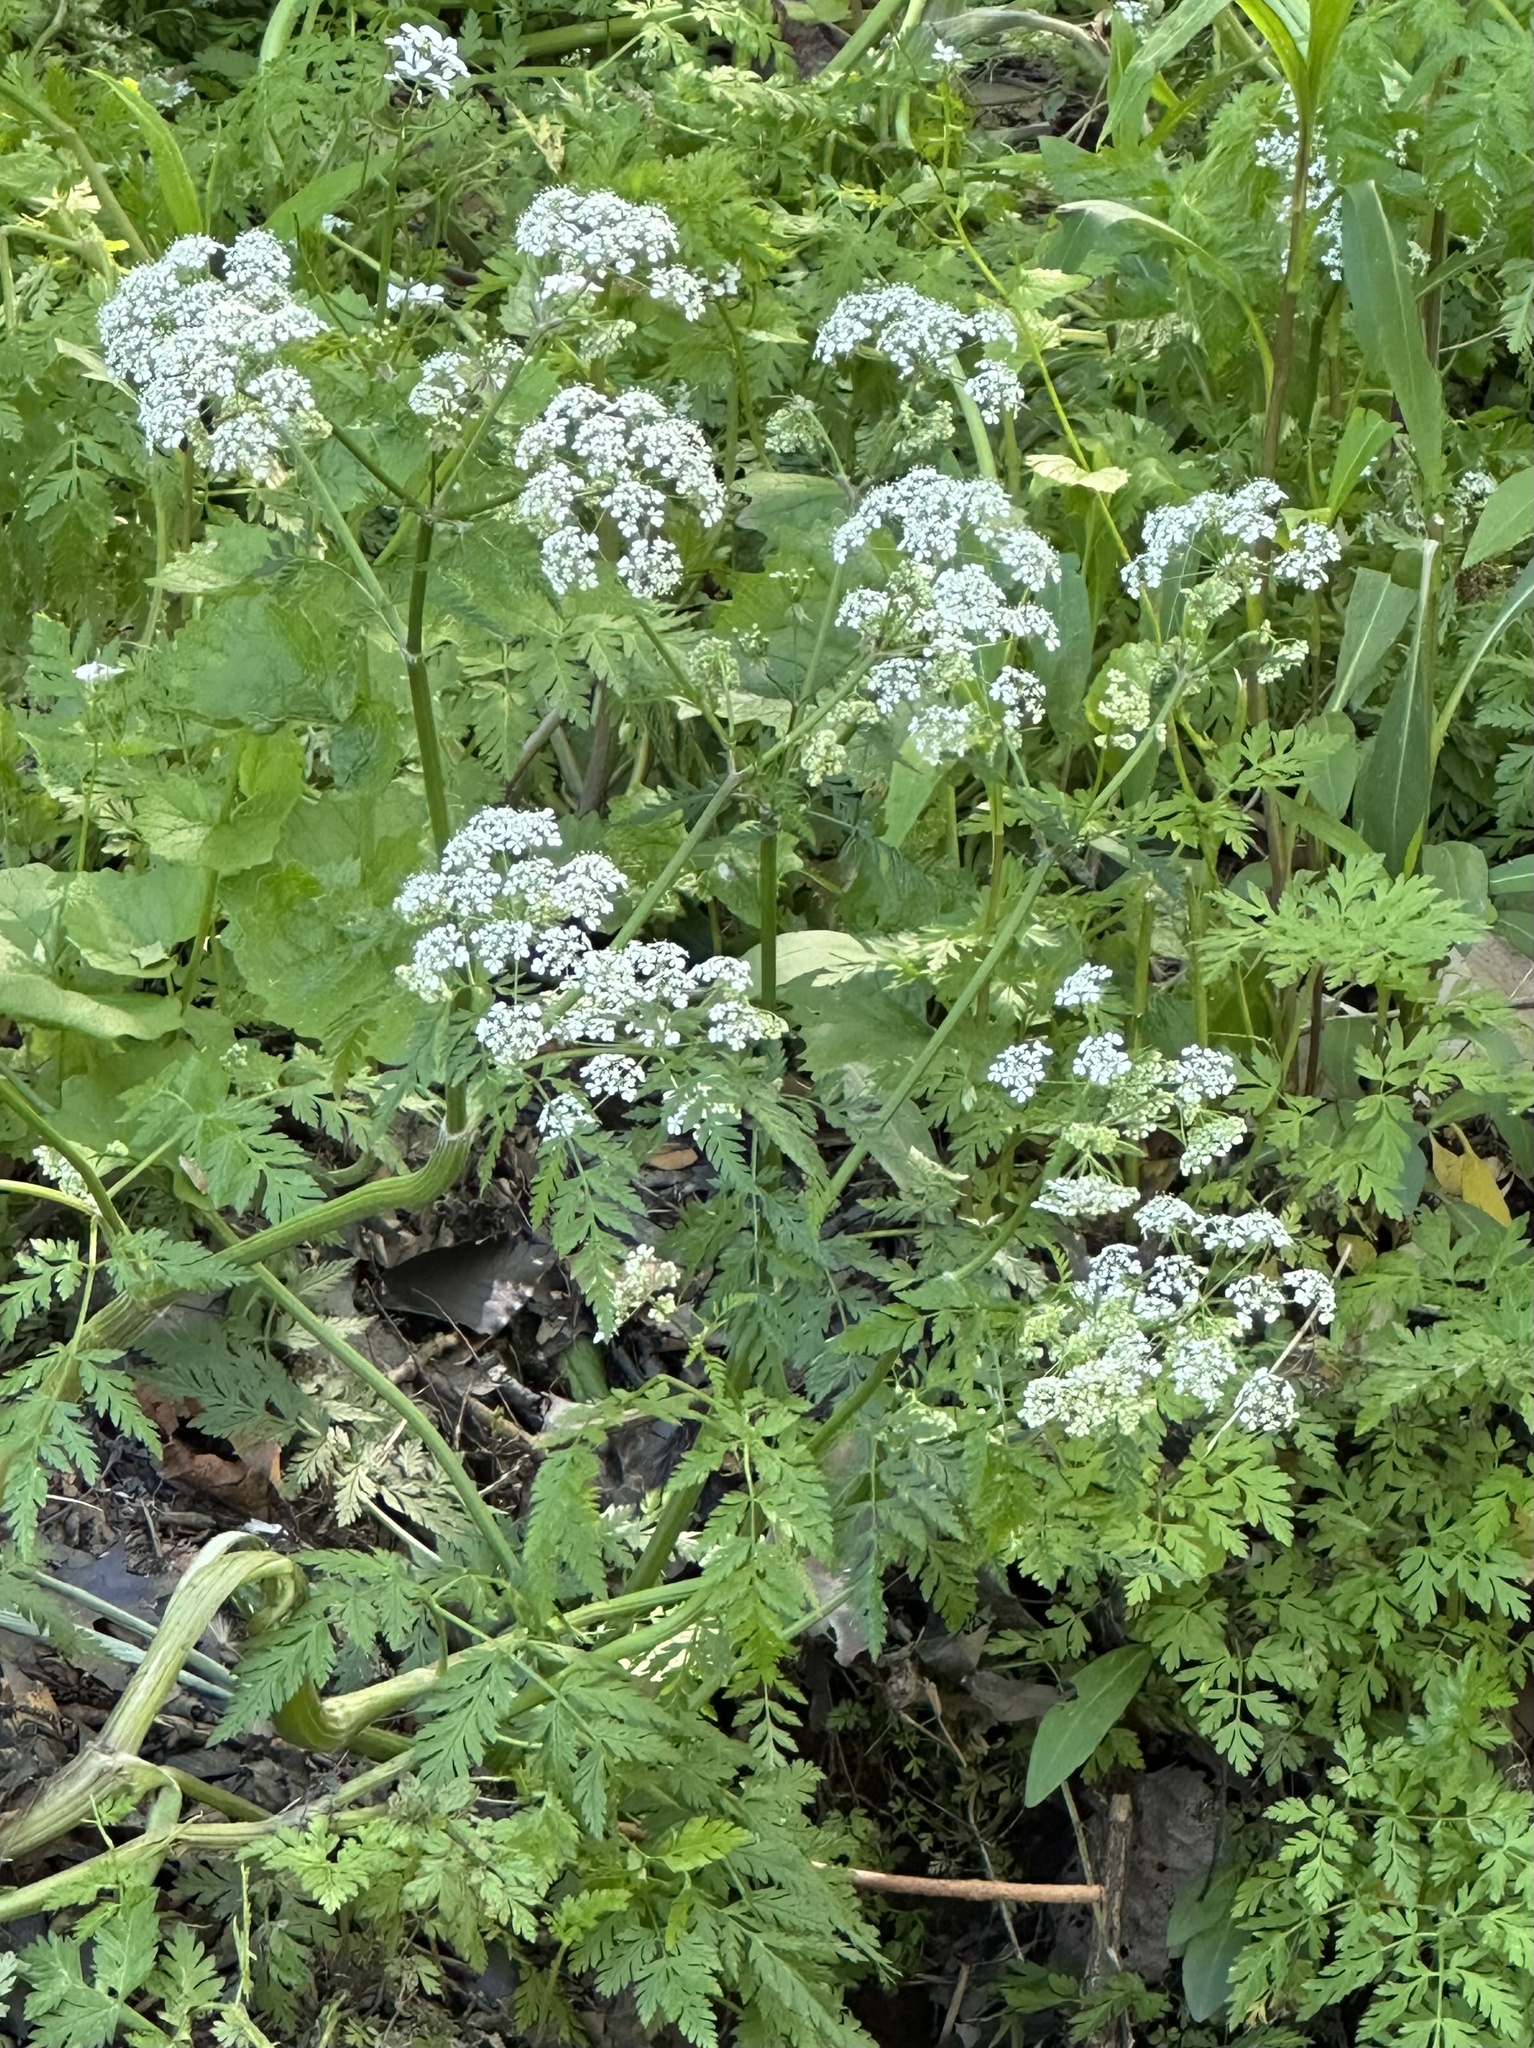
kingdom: Plantae
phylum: Tracheophyta
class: Magnoliopsida
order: Apiales
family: Apiaceae
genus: Anthriscus
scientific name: Anthriscus sylvestris
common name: Cow parsley
